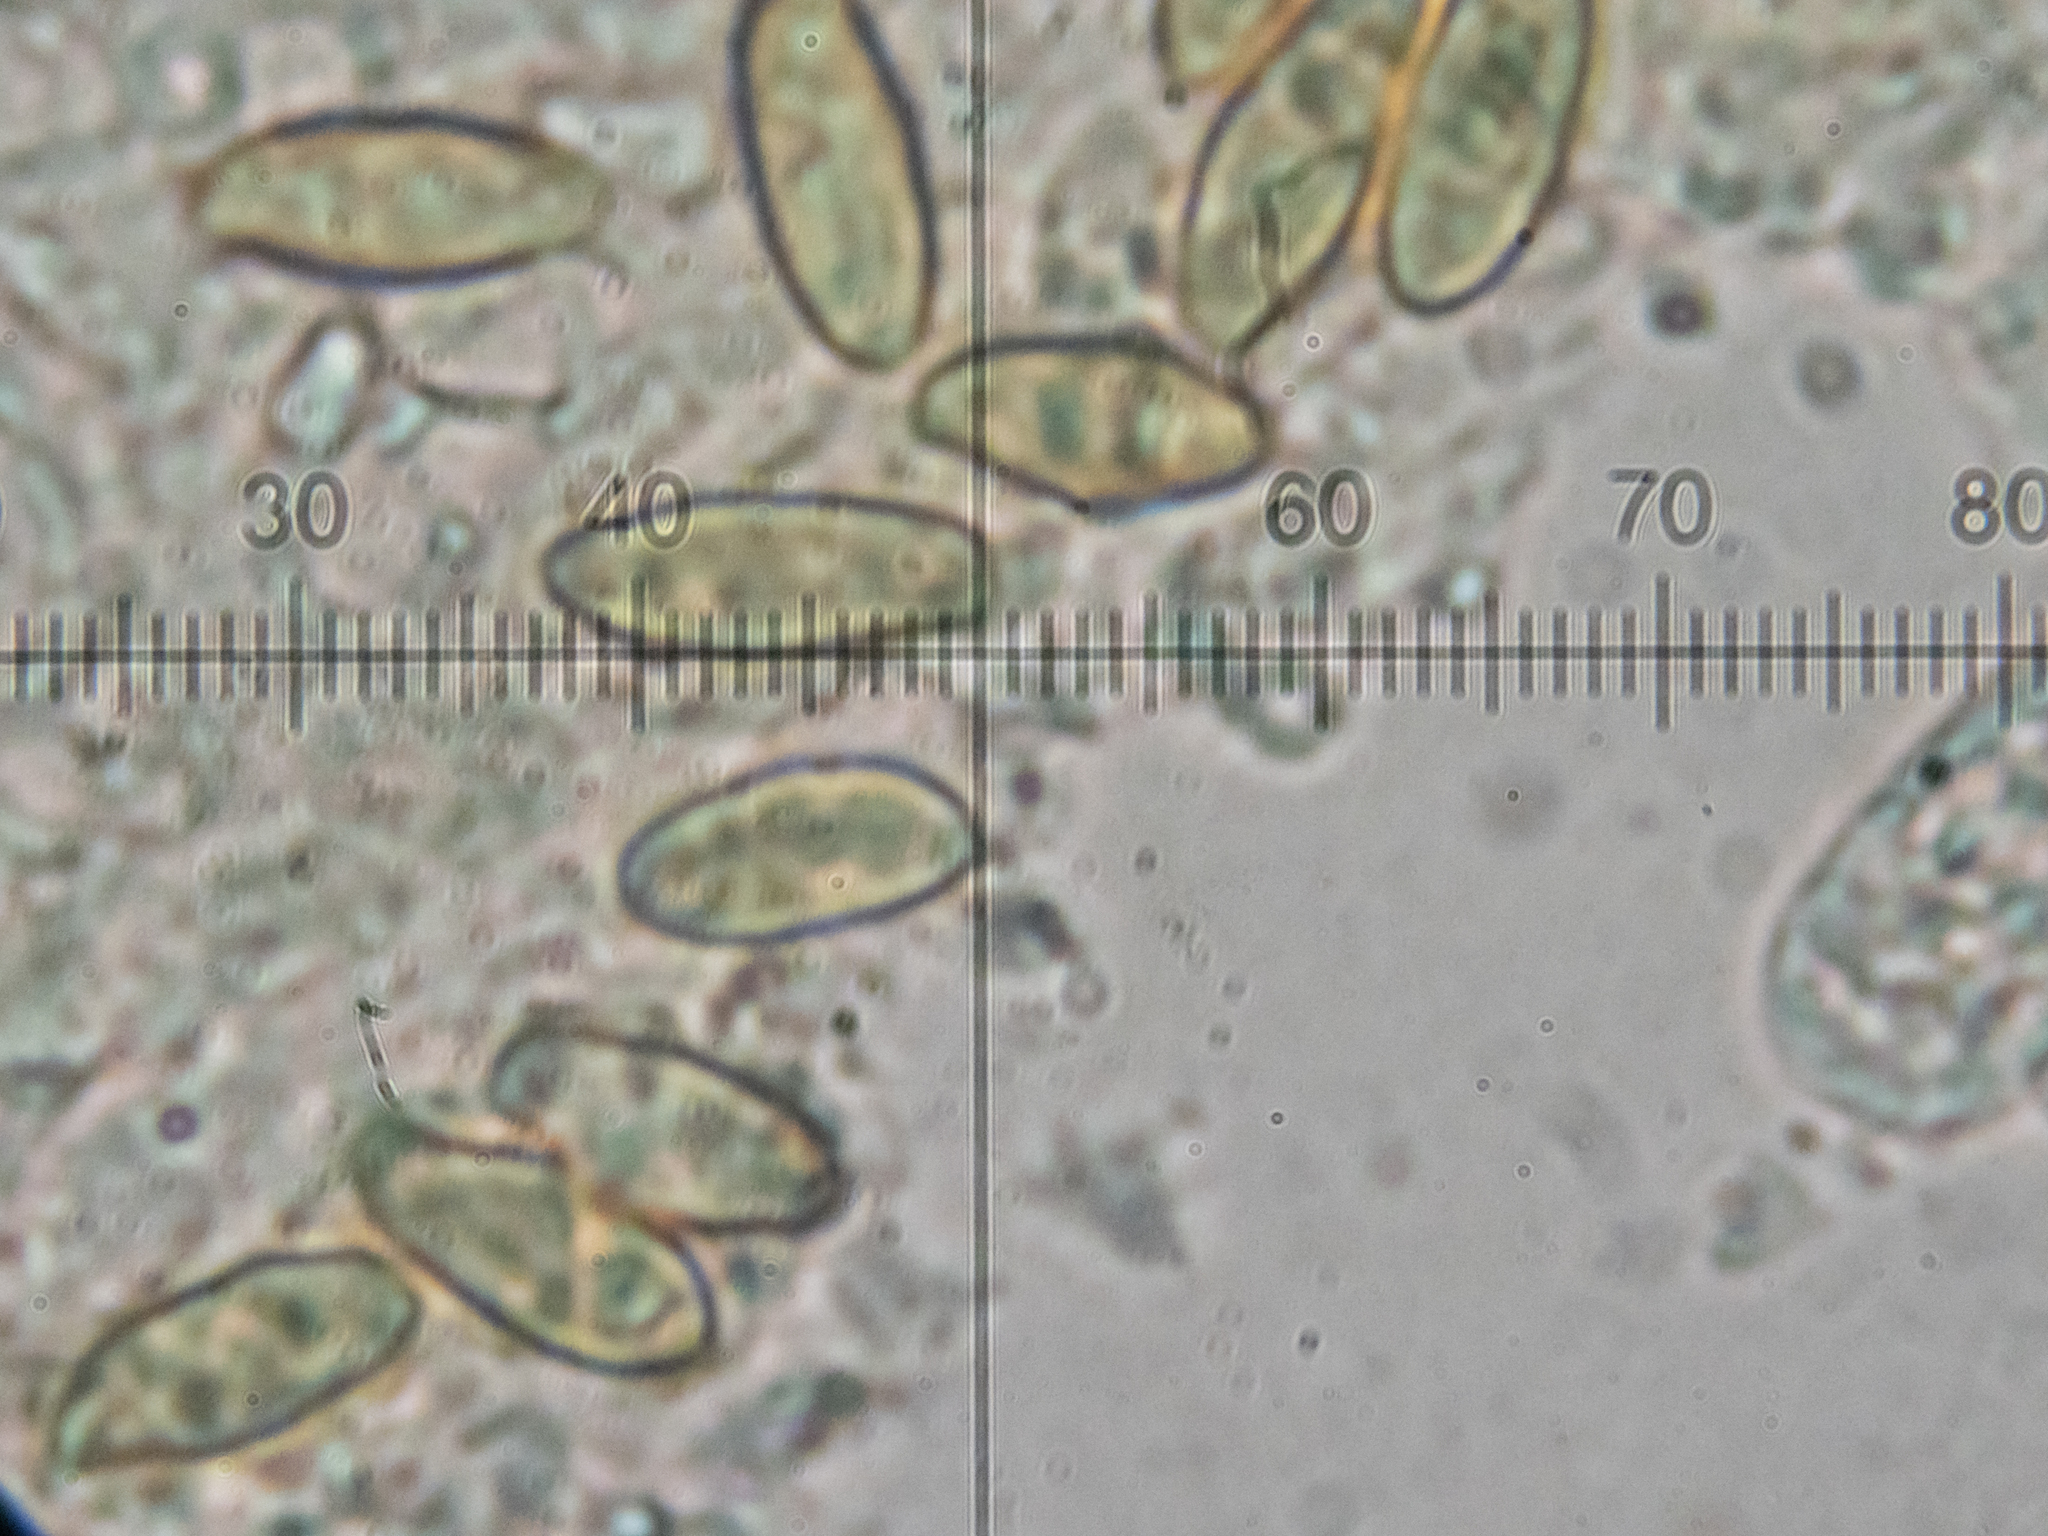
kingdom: Fungi
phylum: Basidiomycota
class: Agaricomycetes
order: Boletales
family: Boletaceae
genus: Xerocomellus
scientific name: Xerocomellus porosporus
